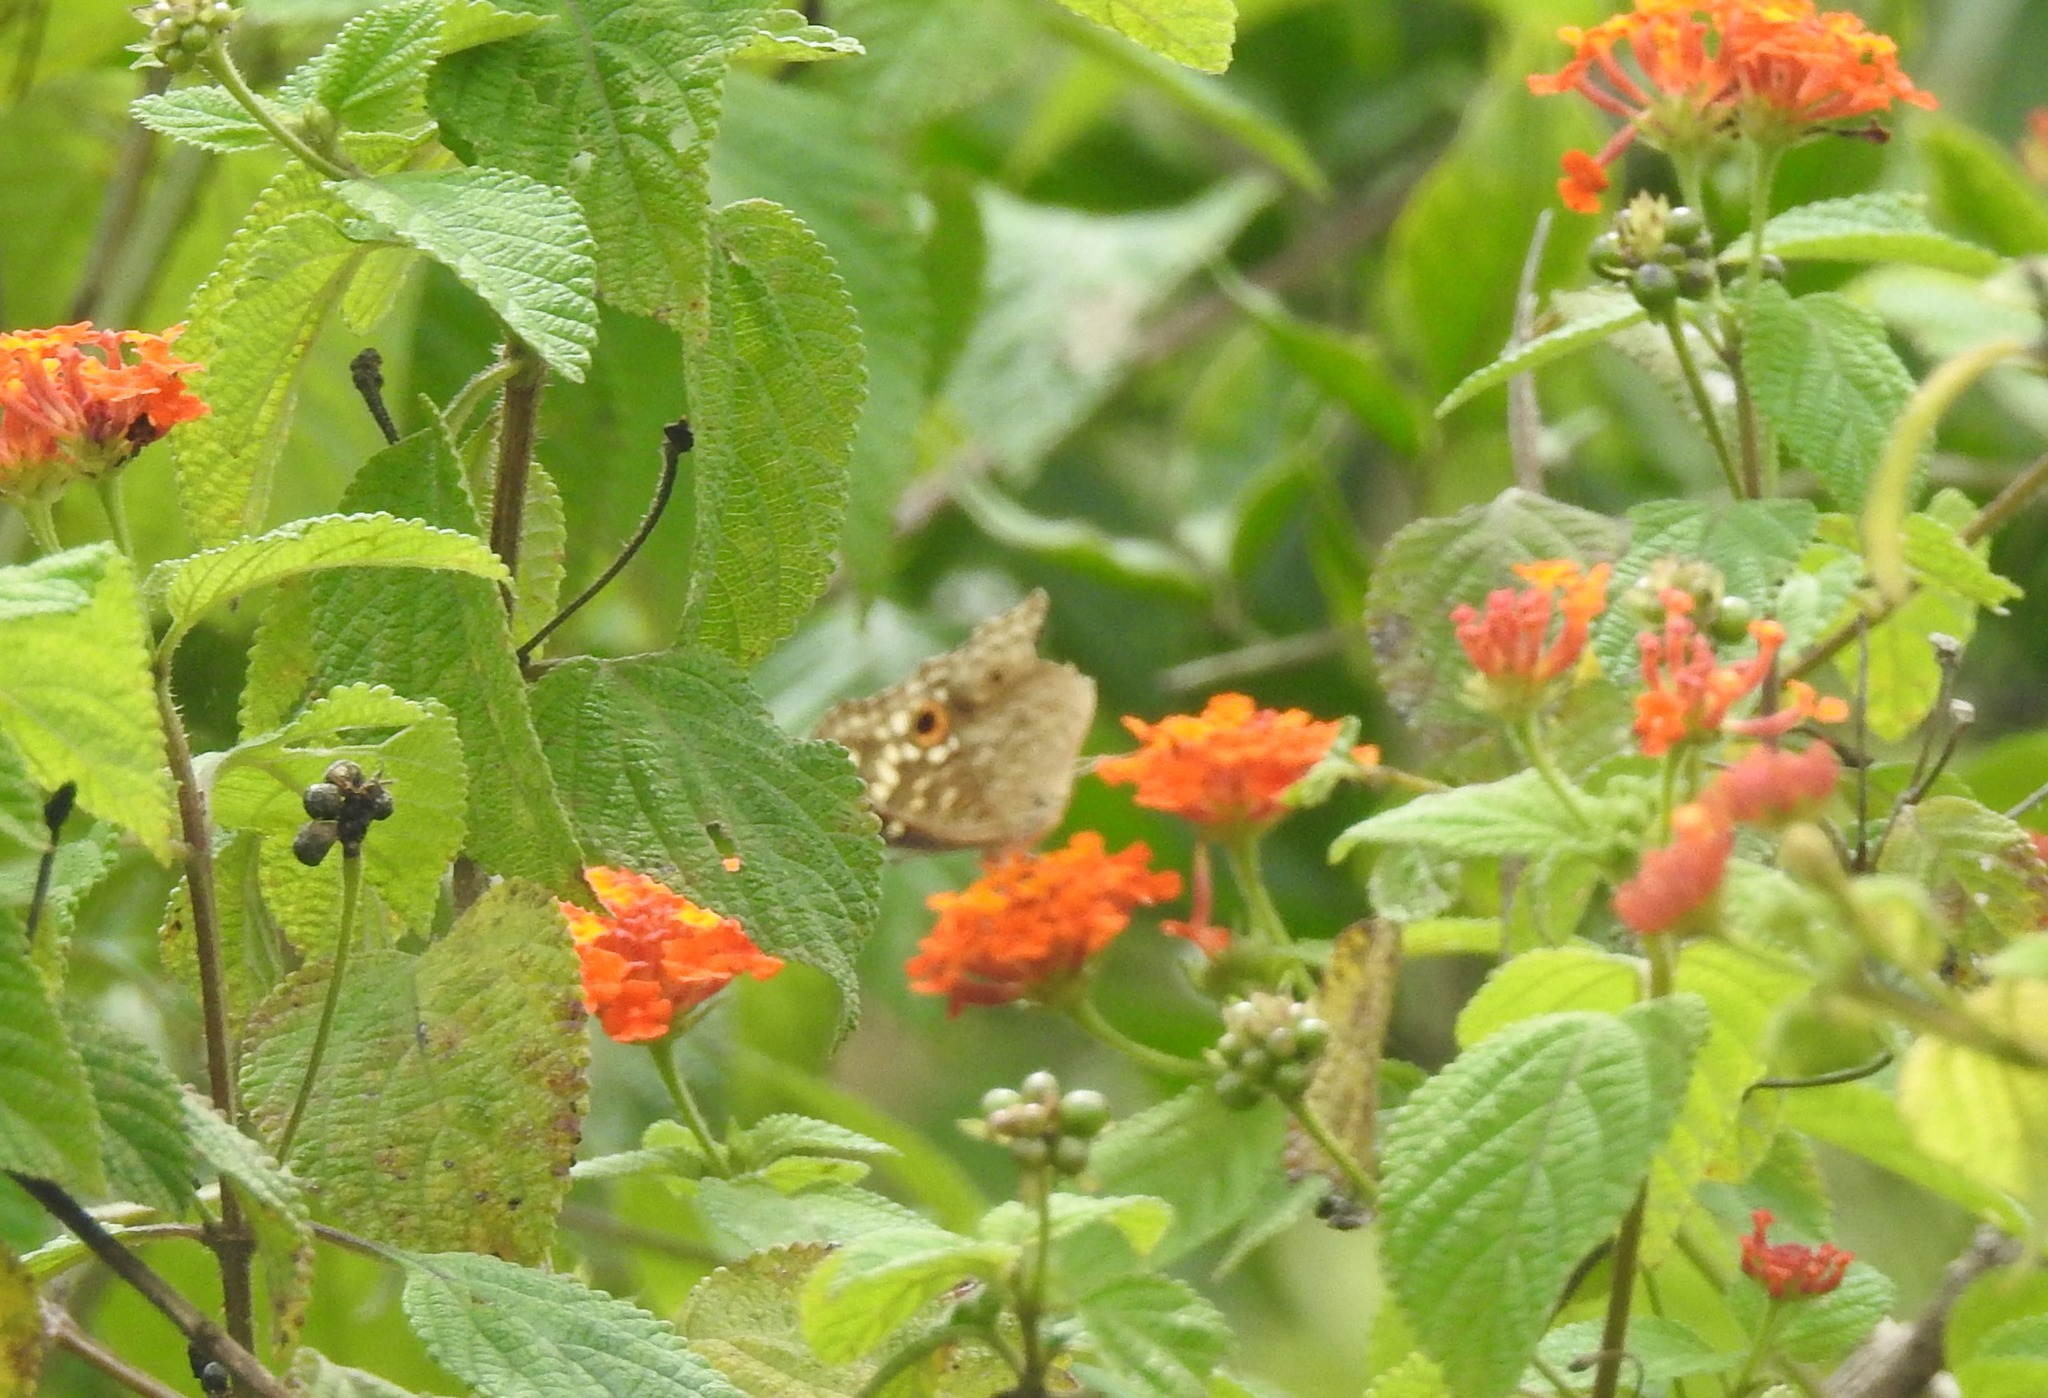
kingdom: Animalia
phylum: Arthropoda
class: Insecta
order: Lepidoptera
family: Nymphalidae
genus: Junonia
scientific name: Junonia lemonias
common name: Lemon pansy
